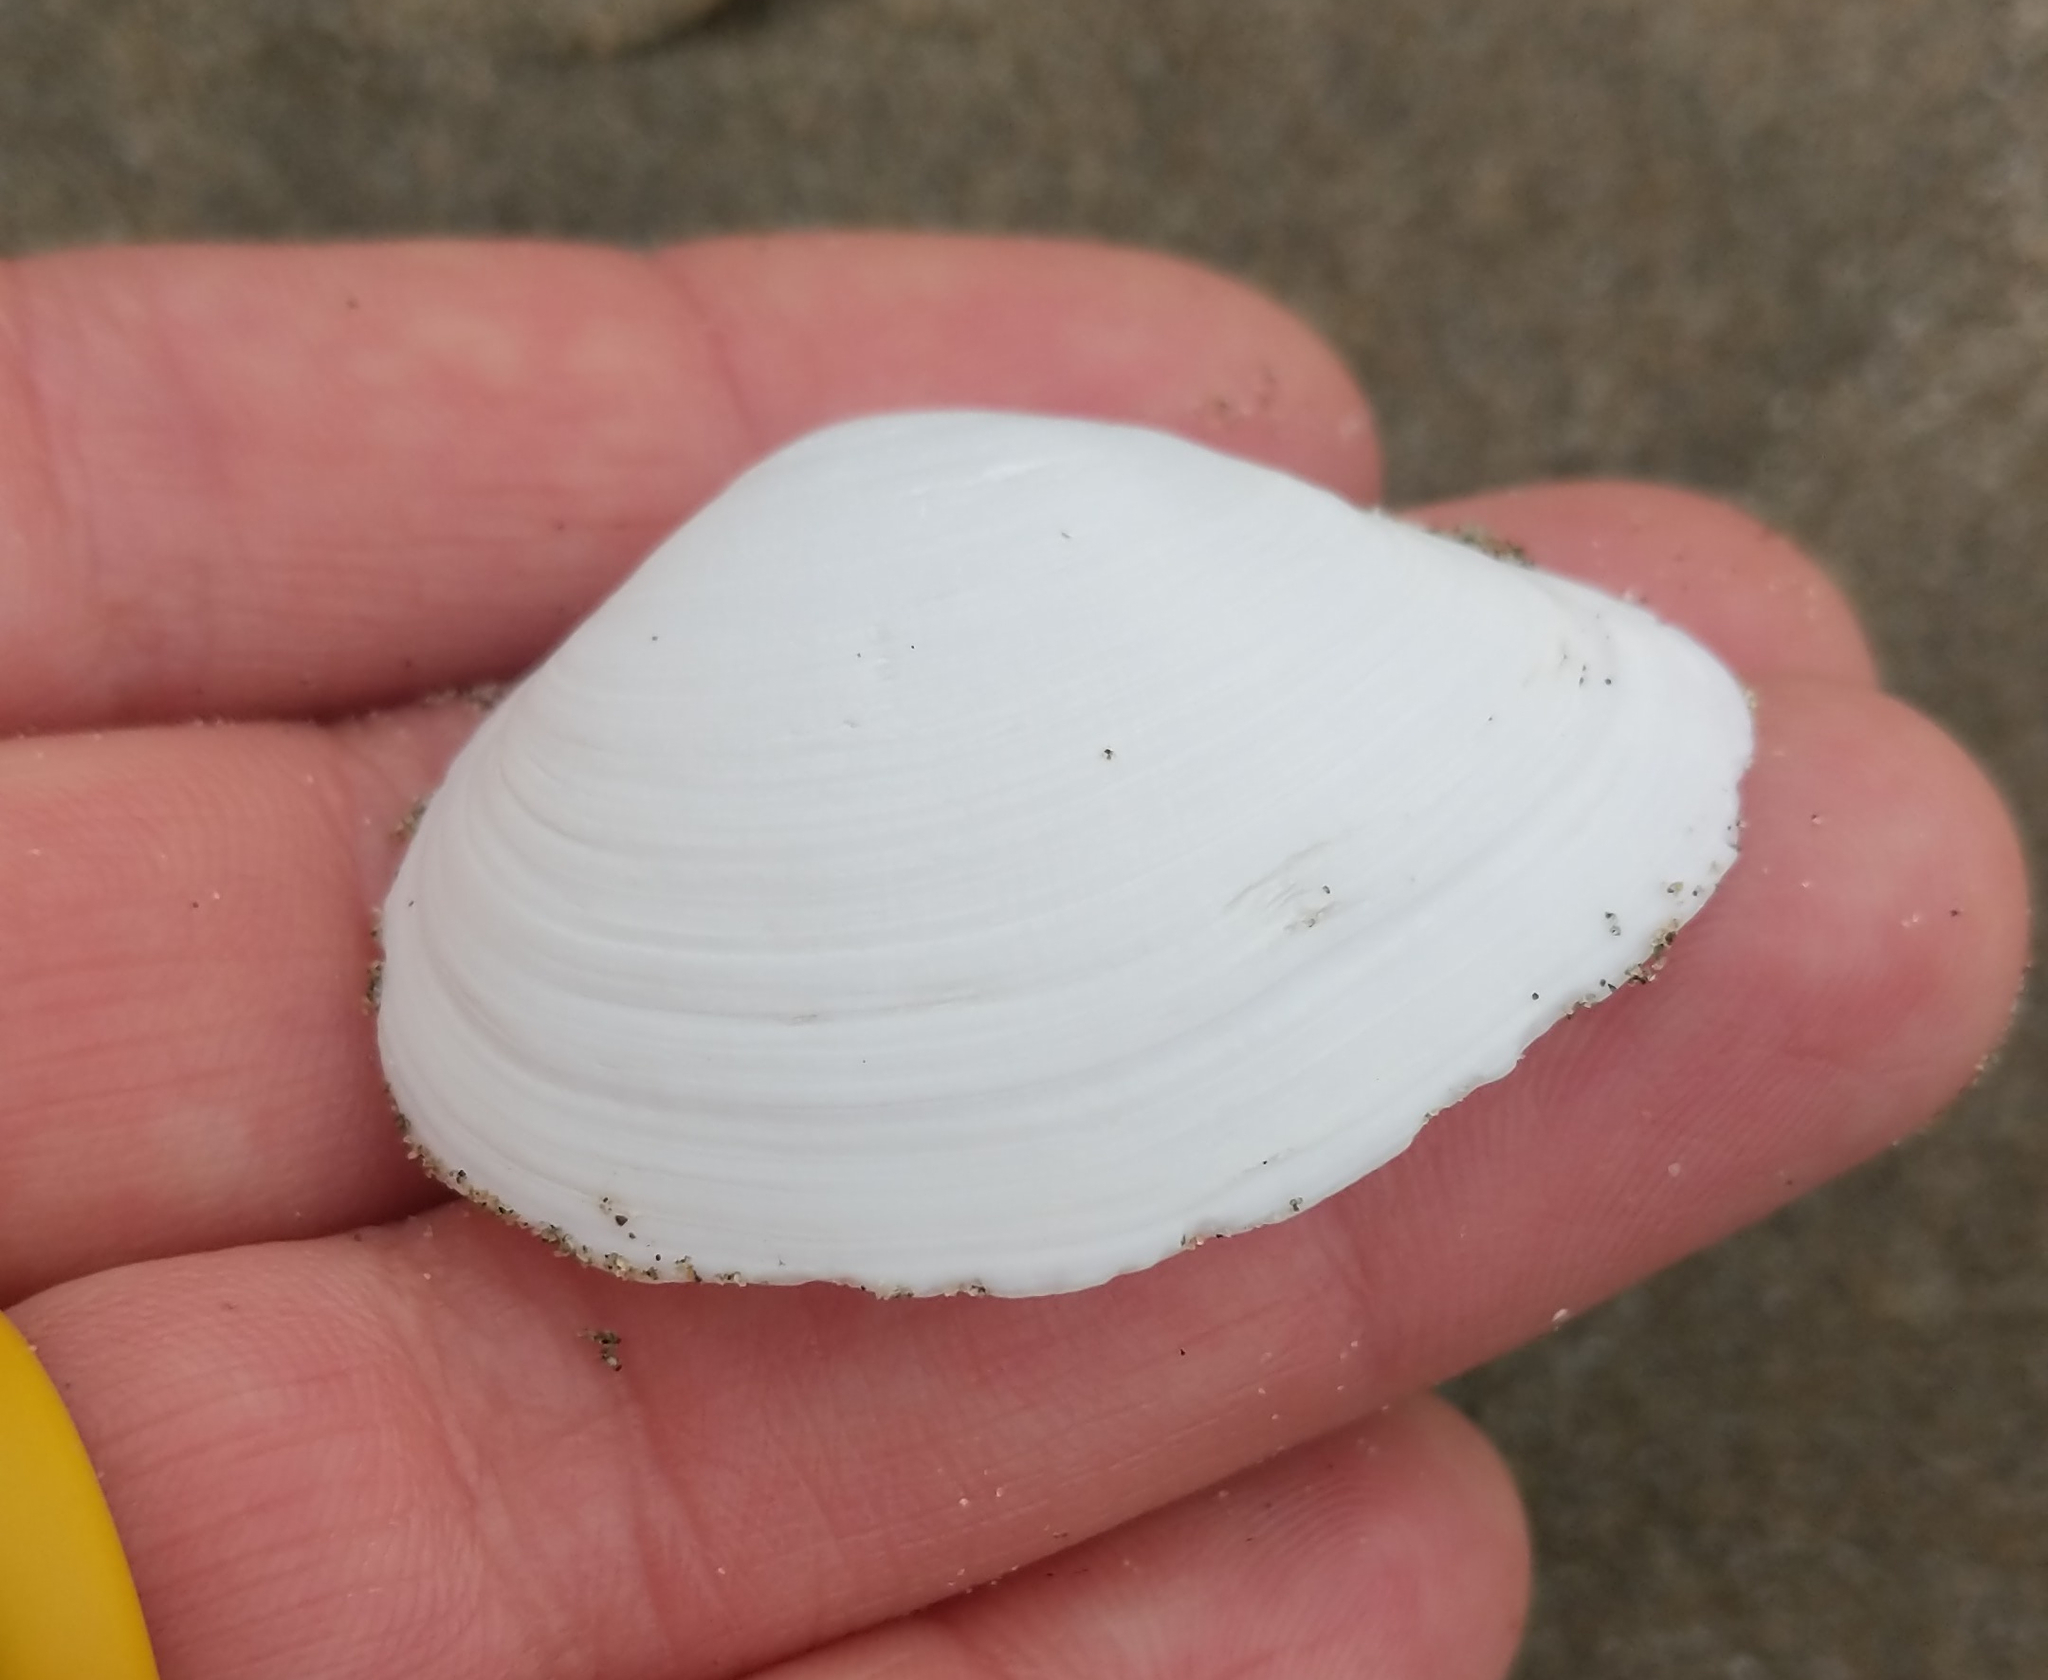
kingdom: Animalia
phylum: Mollusca
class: Bivalvia
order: Cardiida
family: Tellinidae
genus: Macoma
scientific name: Macoma nasuta
